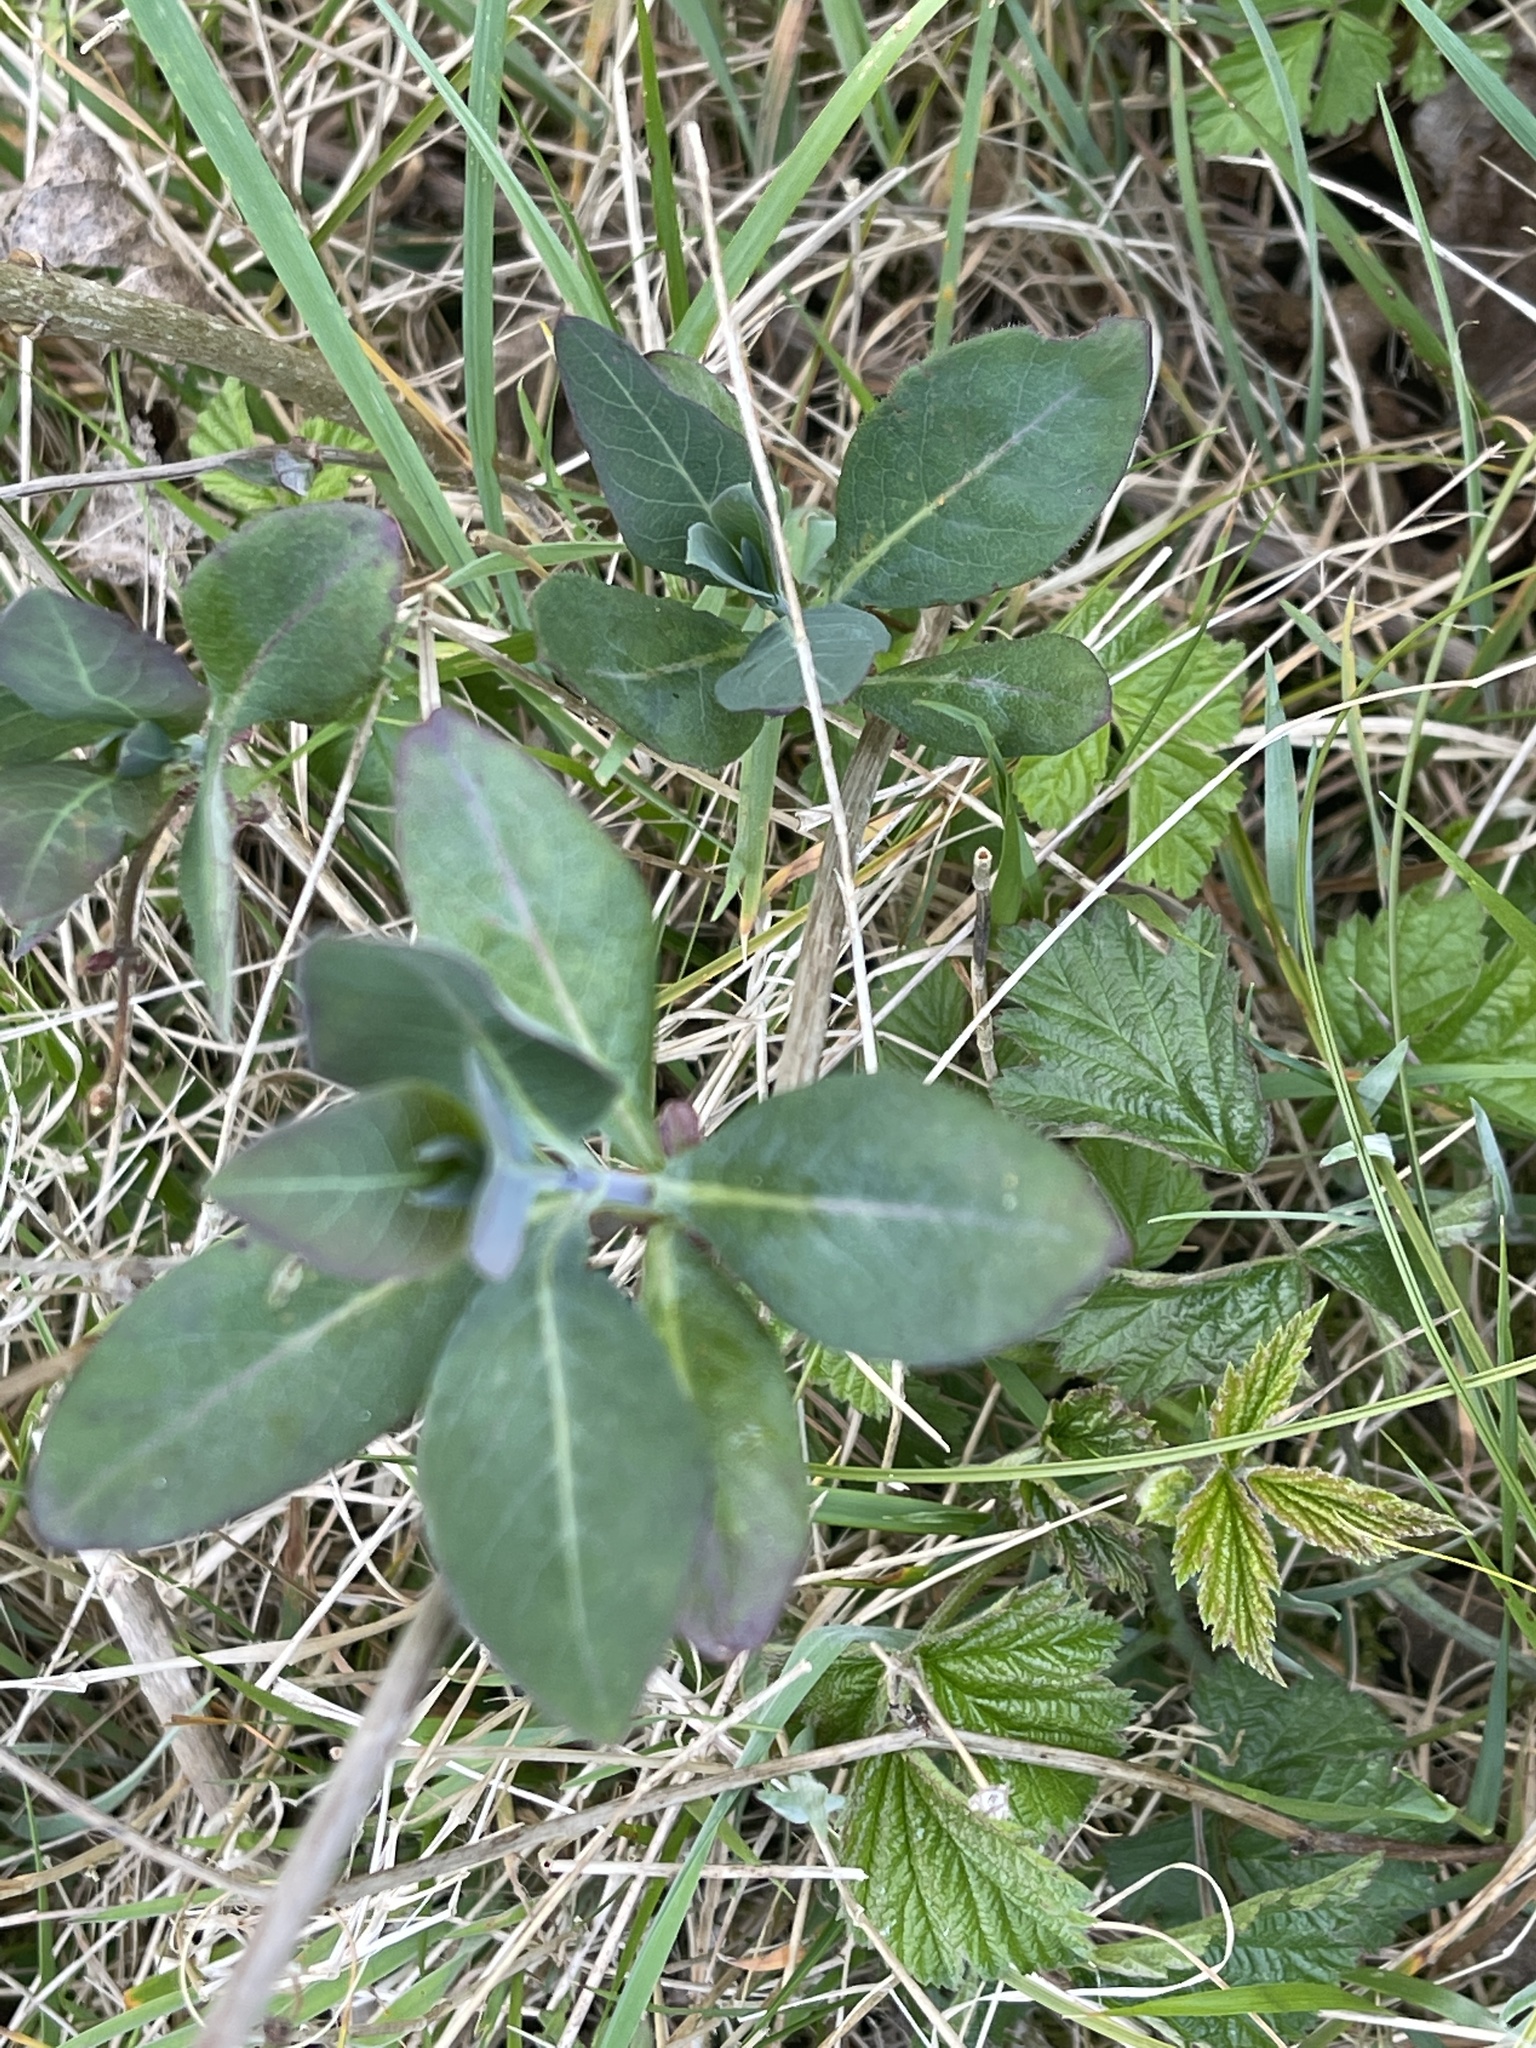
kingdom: Plantae
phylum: Tracheophyta
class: Magnoliopsida
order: Dipsacales
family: Caprifoliaceae
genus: Lonicera
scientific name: Lonicera periclymenum
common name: European honeysuckle
